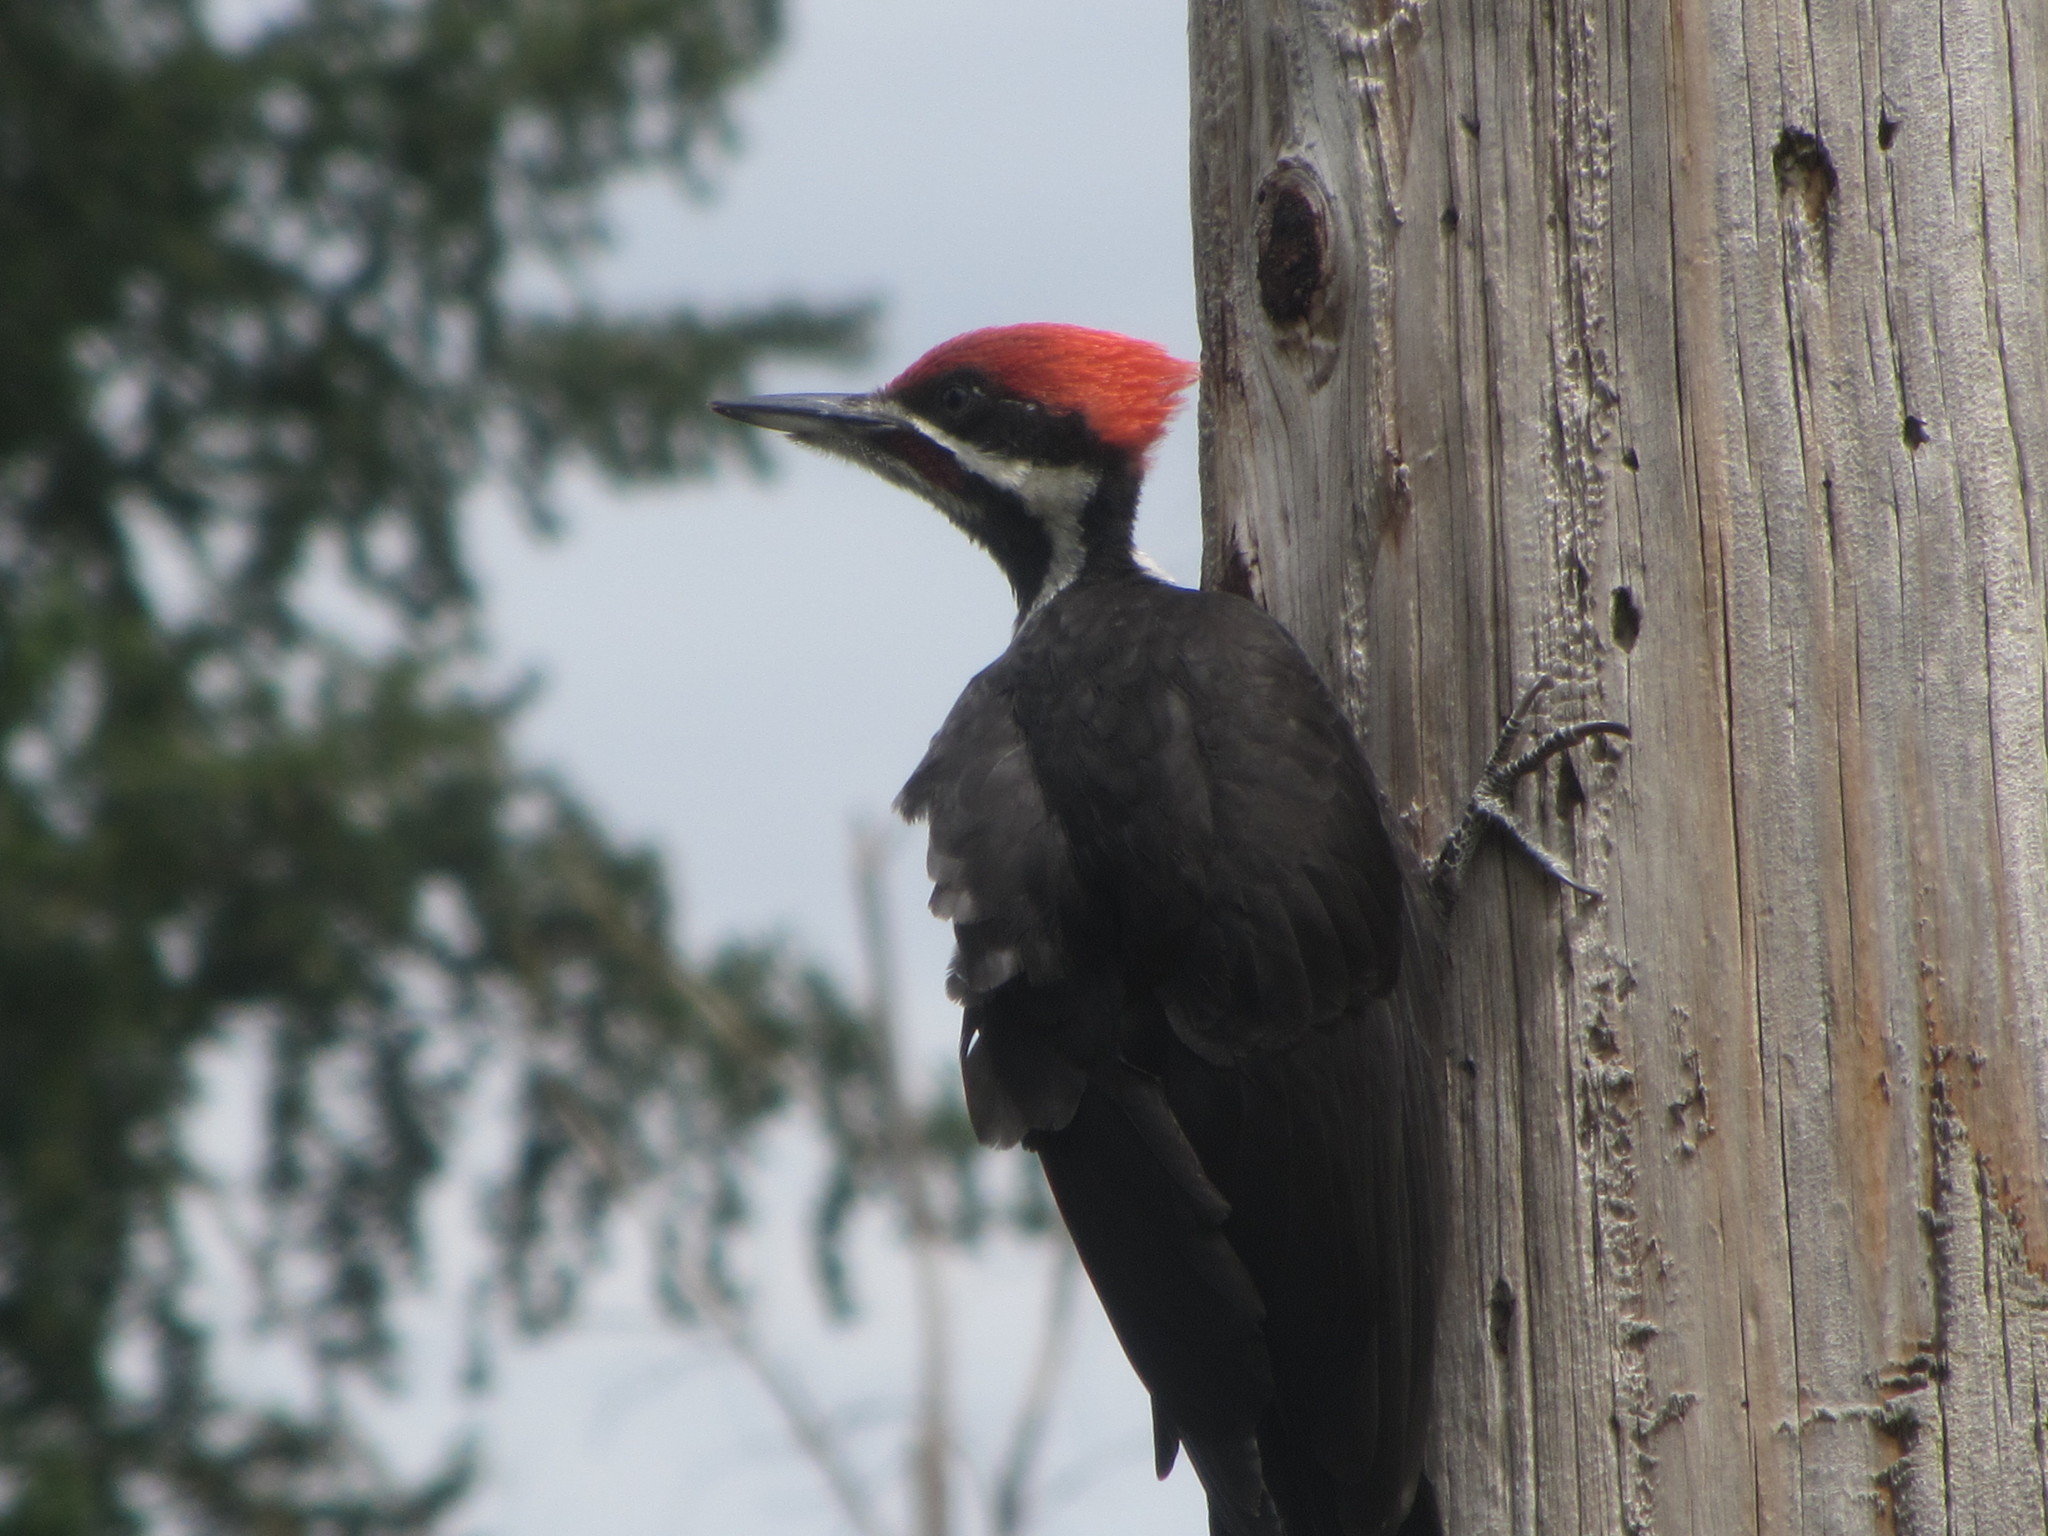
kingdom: Animalia
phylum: Chordata
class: Aves
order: Piciformes
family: Picidae
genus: Dryocopus
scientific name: Dryocopus pileatus
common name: Pileated woodpecker
